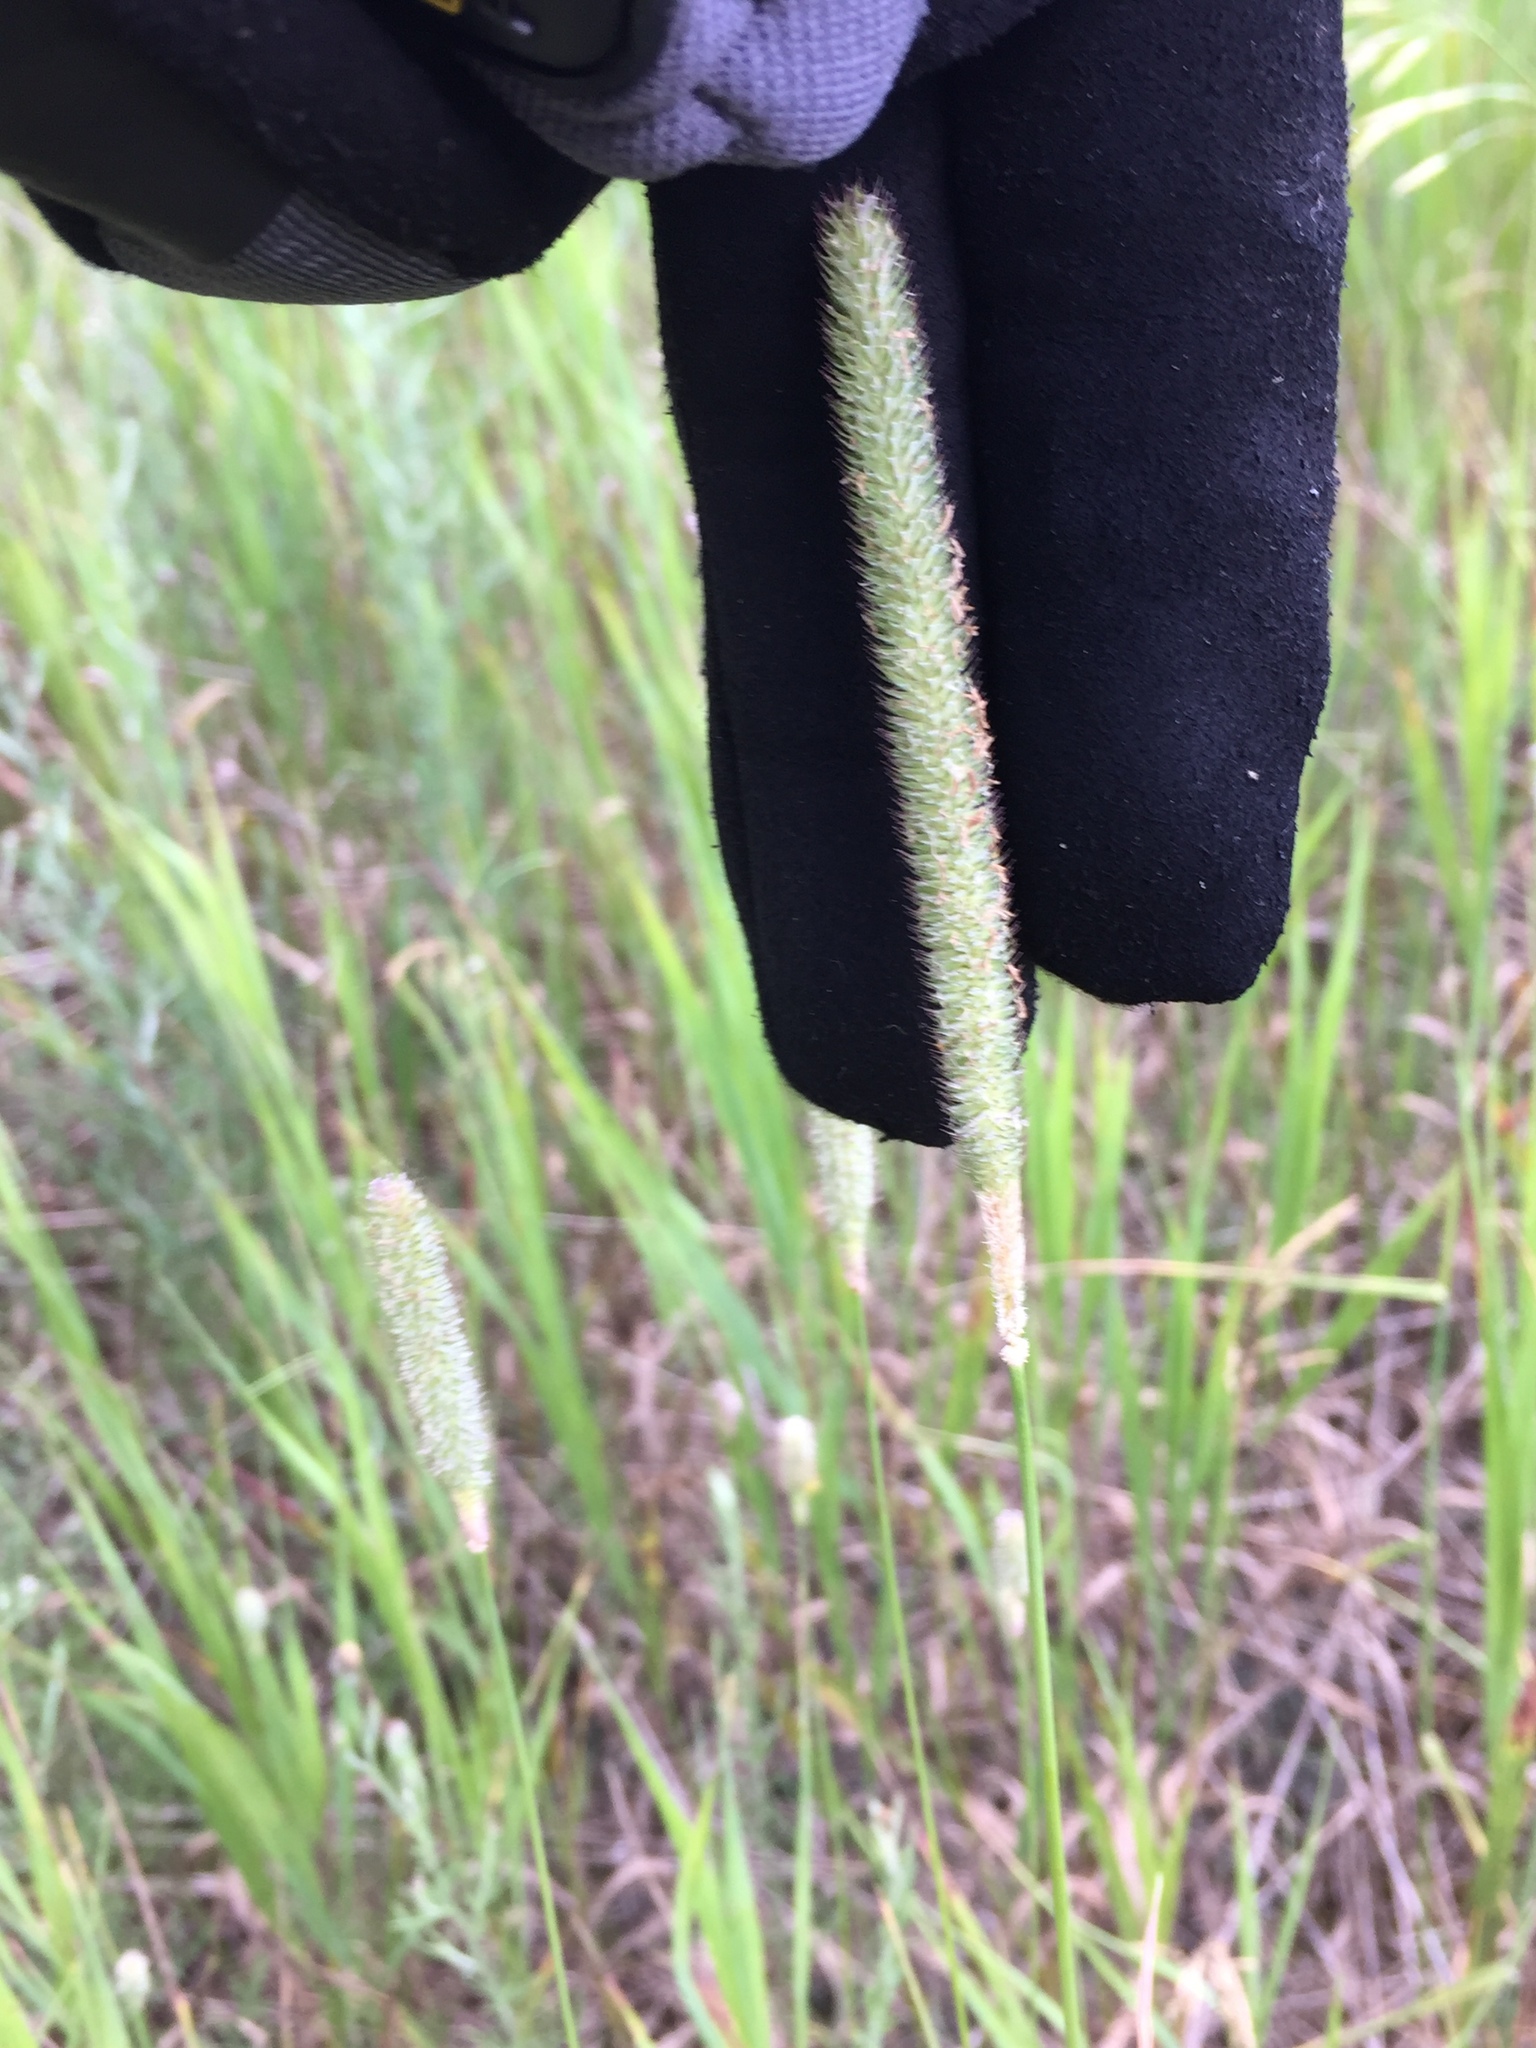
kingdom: Plantae
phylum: Tracheophyta
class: Liliopsida
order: Poales
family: Poaceae
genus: Phleum
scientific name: Phleum pratense
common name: Timothy grass
